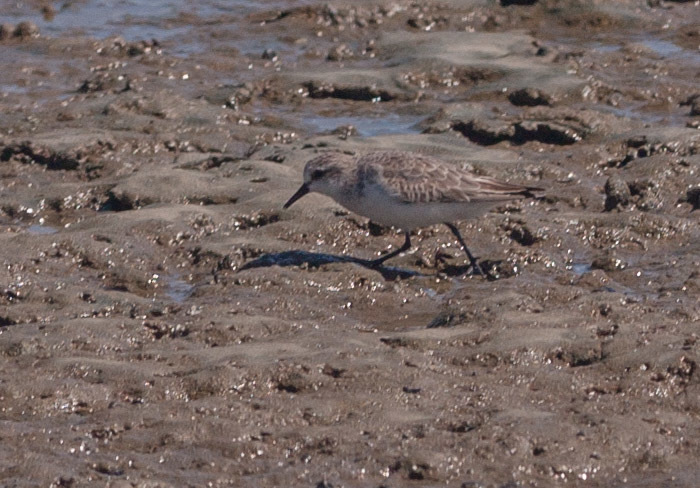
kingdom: Animalia
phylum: Chordata
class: Aves
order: Charadriiformes
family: Scolopacidae
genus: Calidris
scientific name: Calidris ruficollis
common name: Red-necked stint
